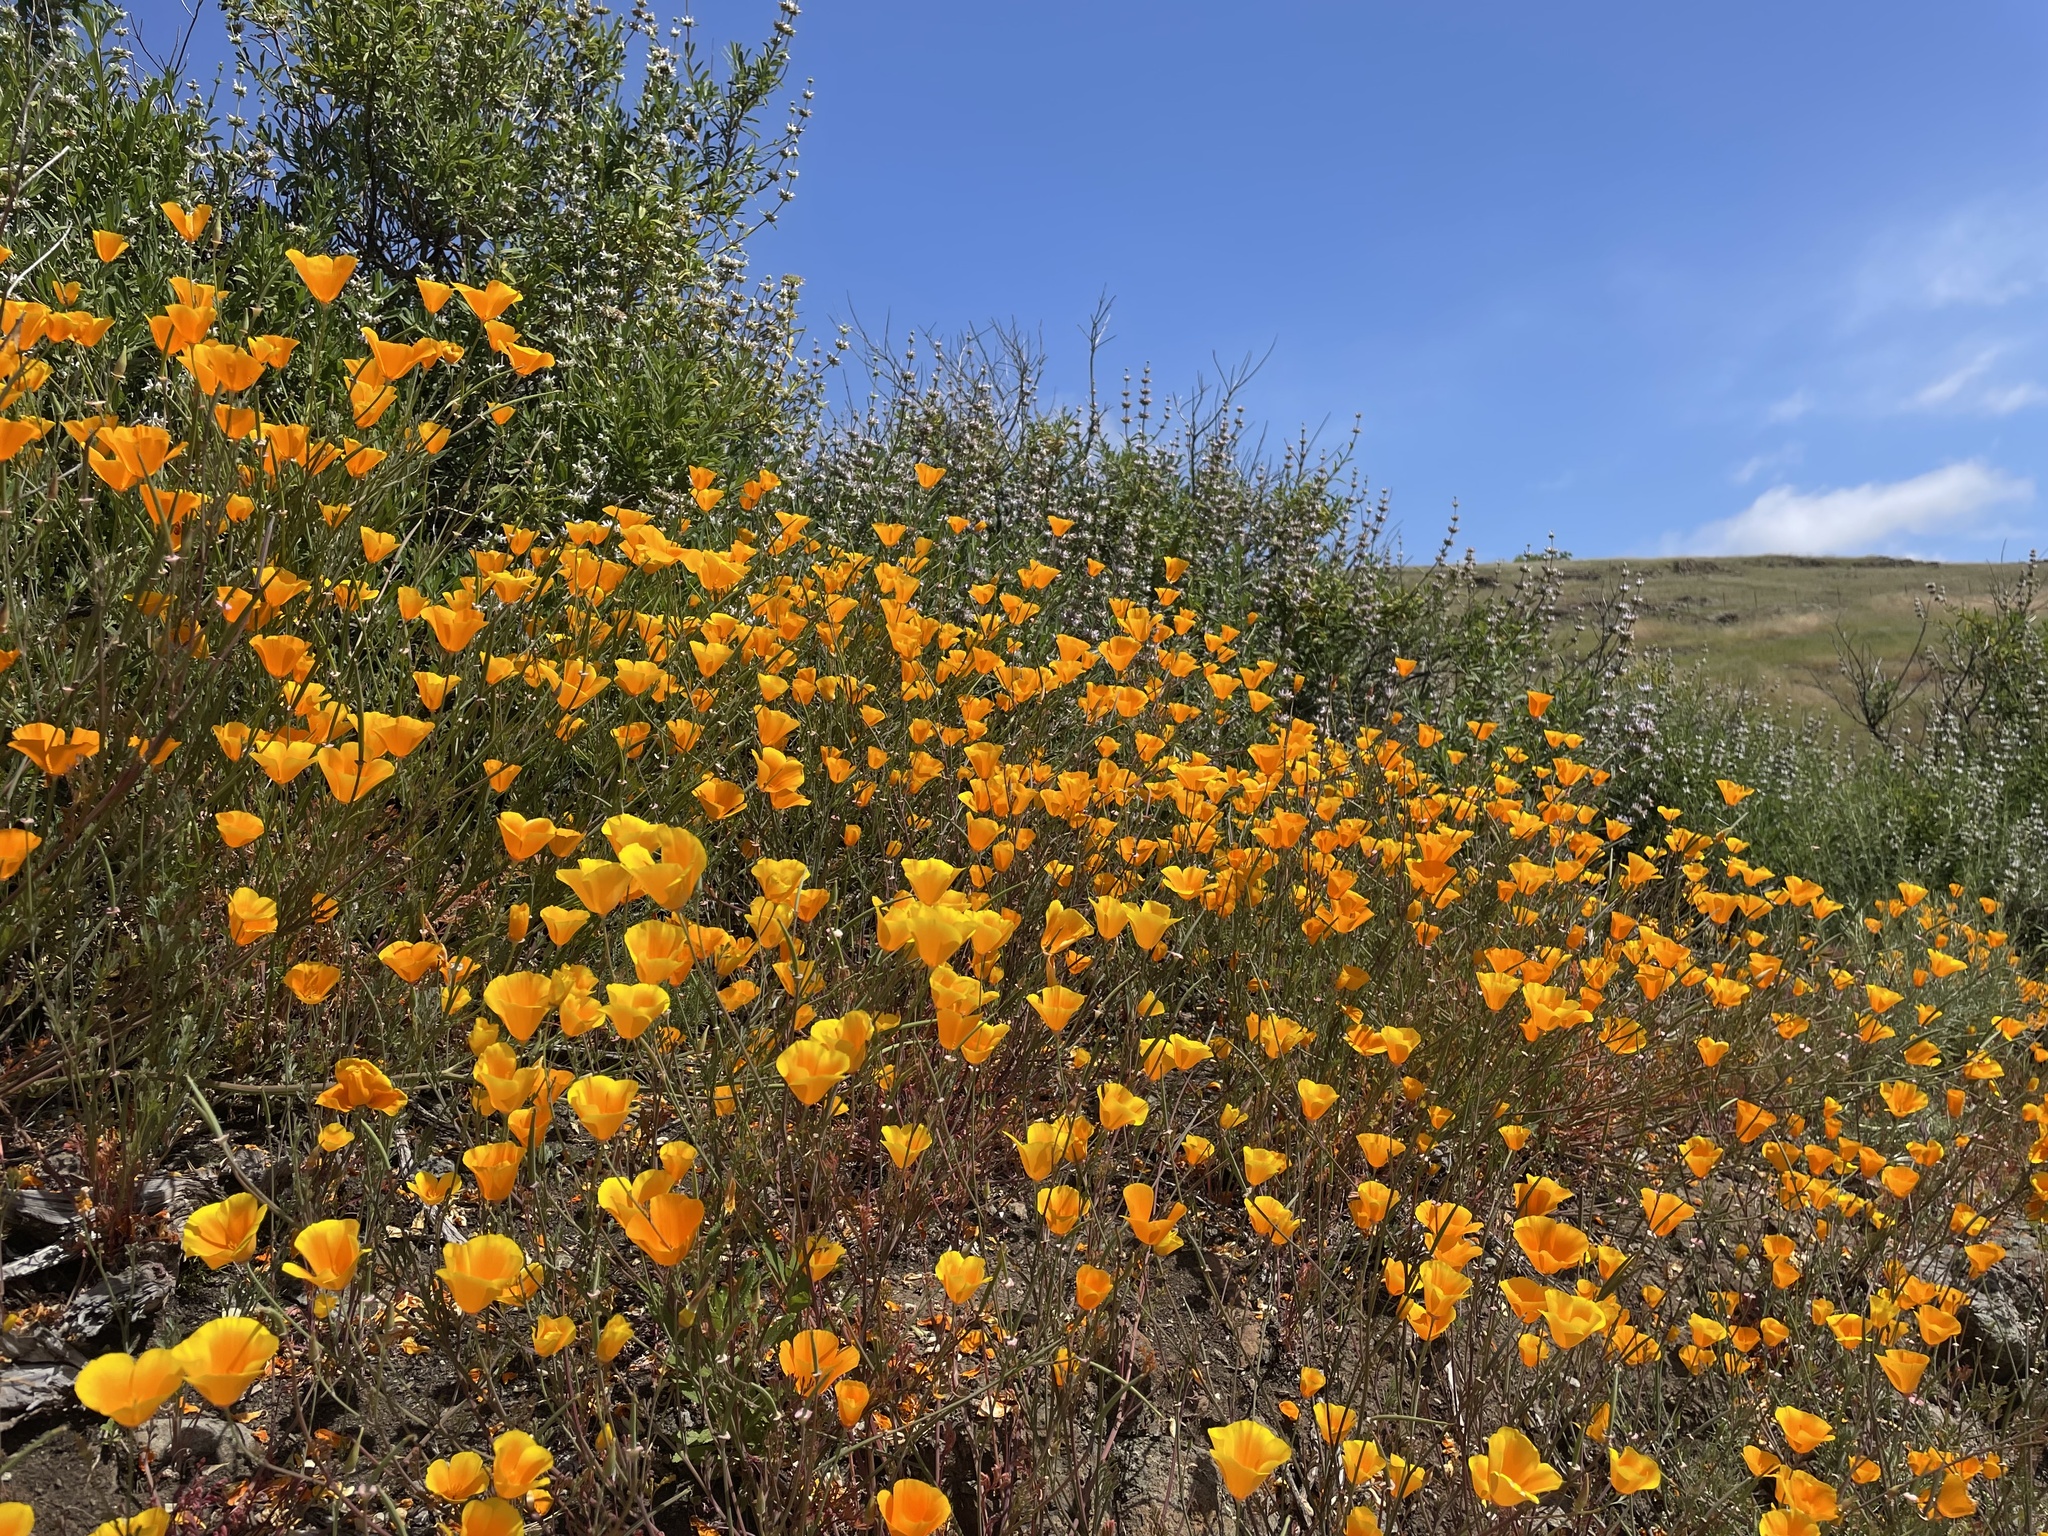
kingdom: Plantae
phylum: Tracheophyta
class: Magnoliopsida
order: Ranunculales
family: Papaveraceae
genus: Eschscholzia
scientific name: Eschscholzia californica
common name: California poppy
